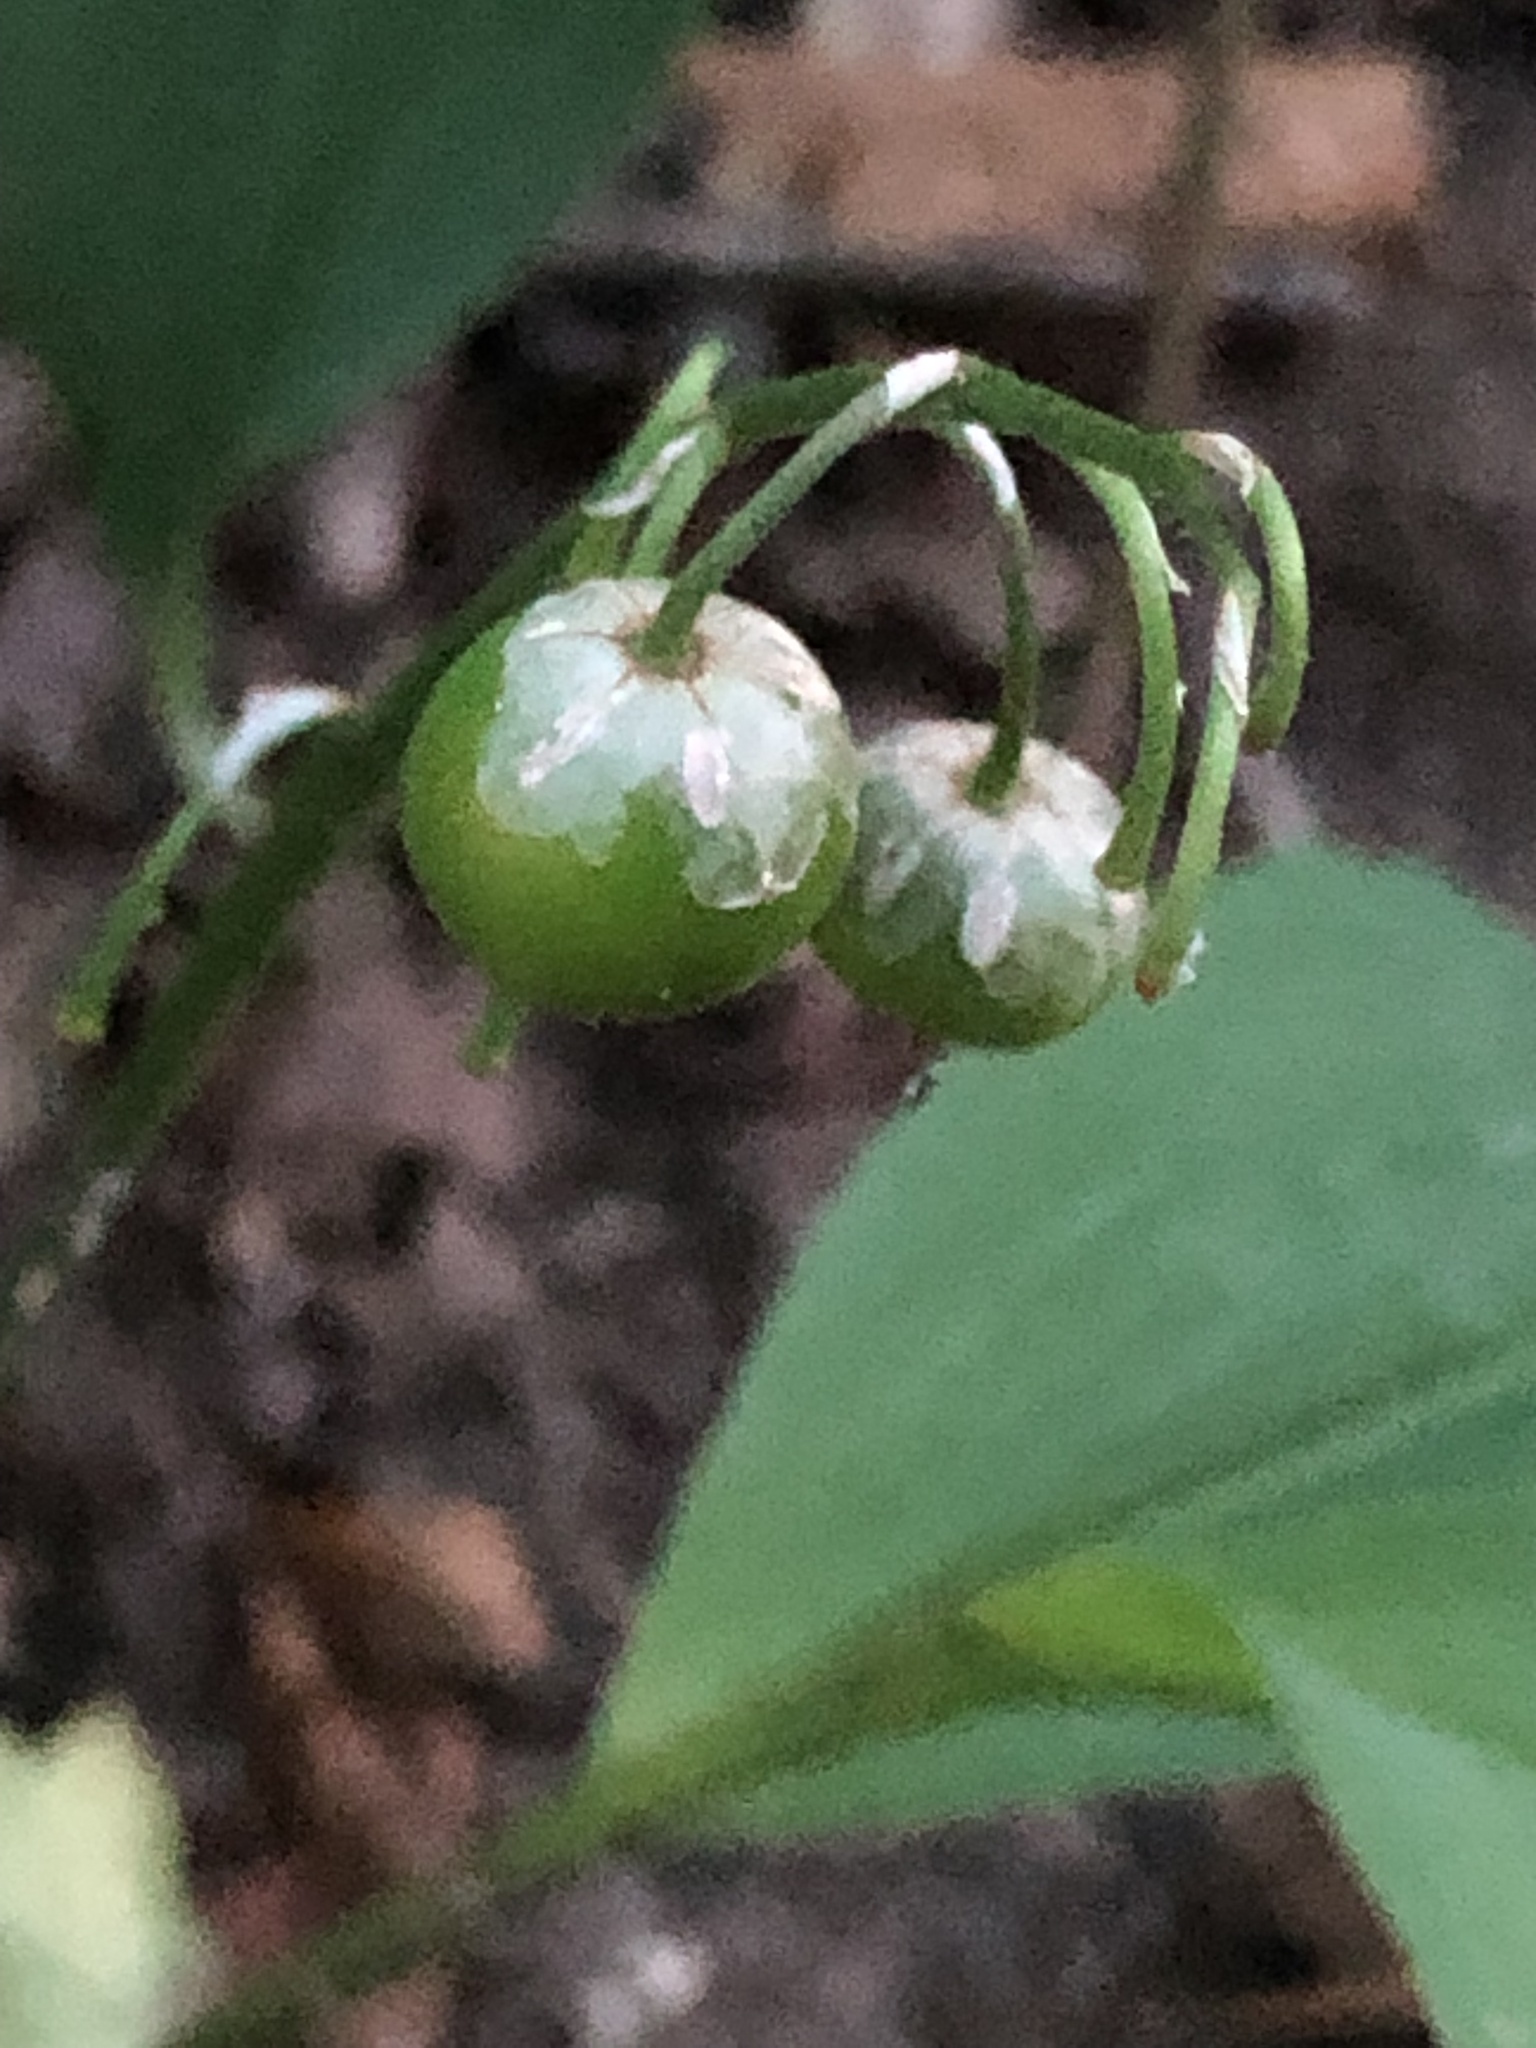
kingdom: Plantae
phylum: Tracheophyta
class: Liliopsida
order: Asparagales
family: Asparagaceae
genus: Convallaria
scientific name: Convallaria majalis
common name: Lily-of-the-valley
